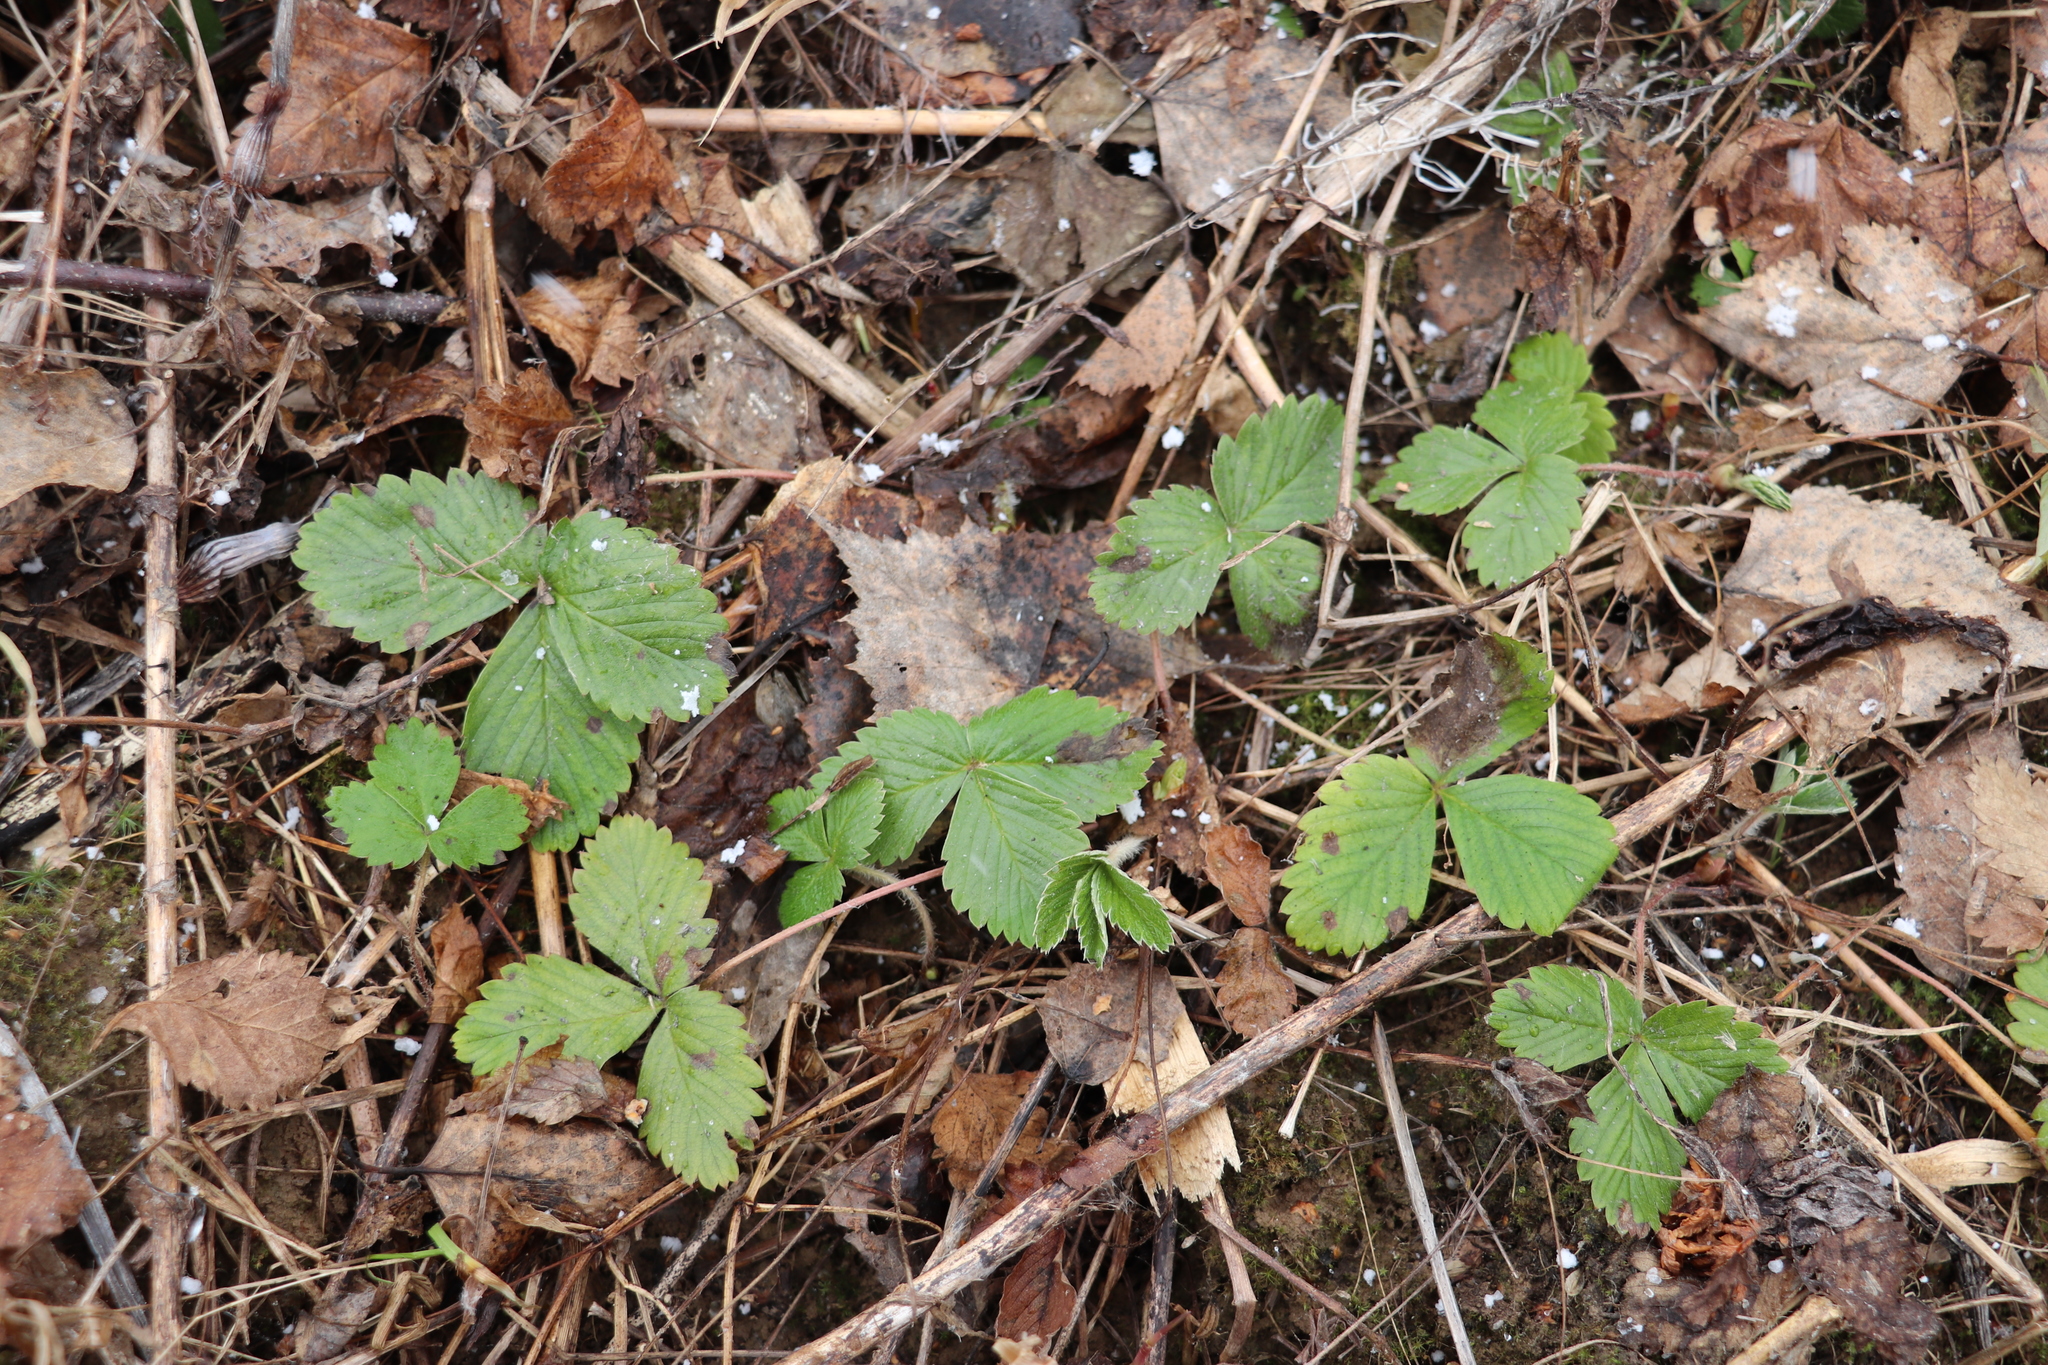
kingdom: Plantae
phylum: Tracheophyta
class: Magnoliopsida
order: Rosales
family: Rosaceae
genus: Fragaria
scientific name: Fragaria vesca
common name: Wild strawberry
